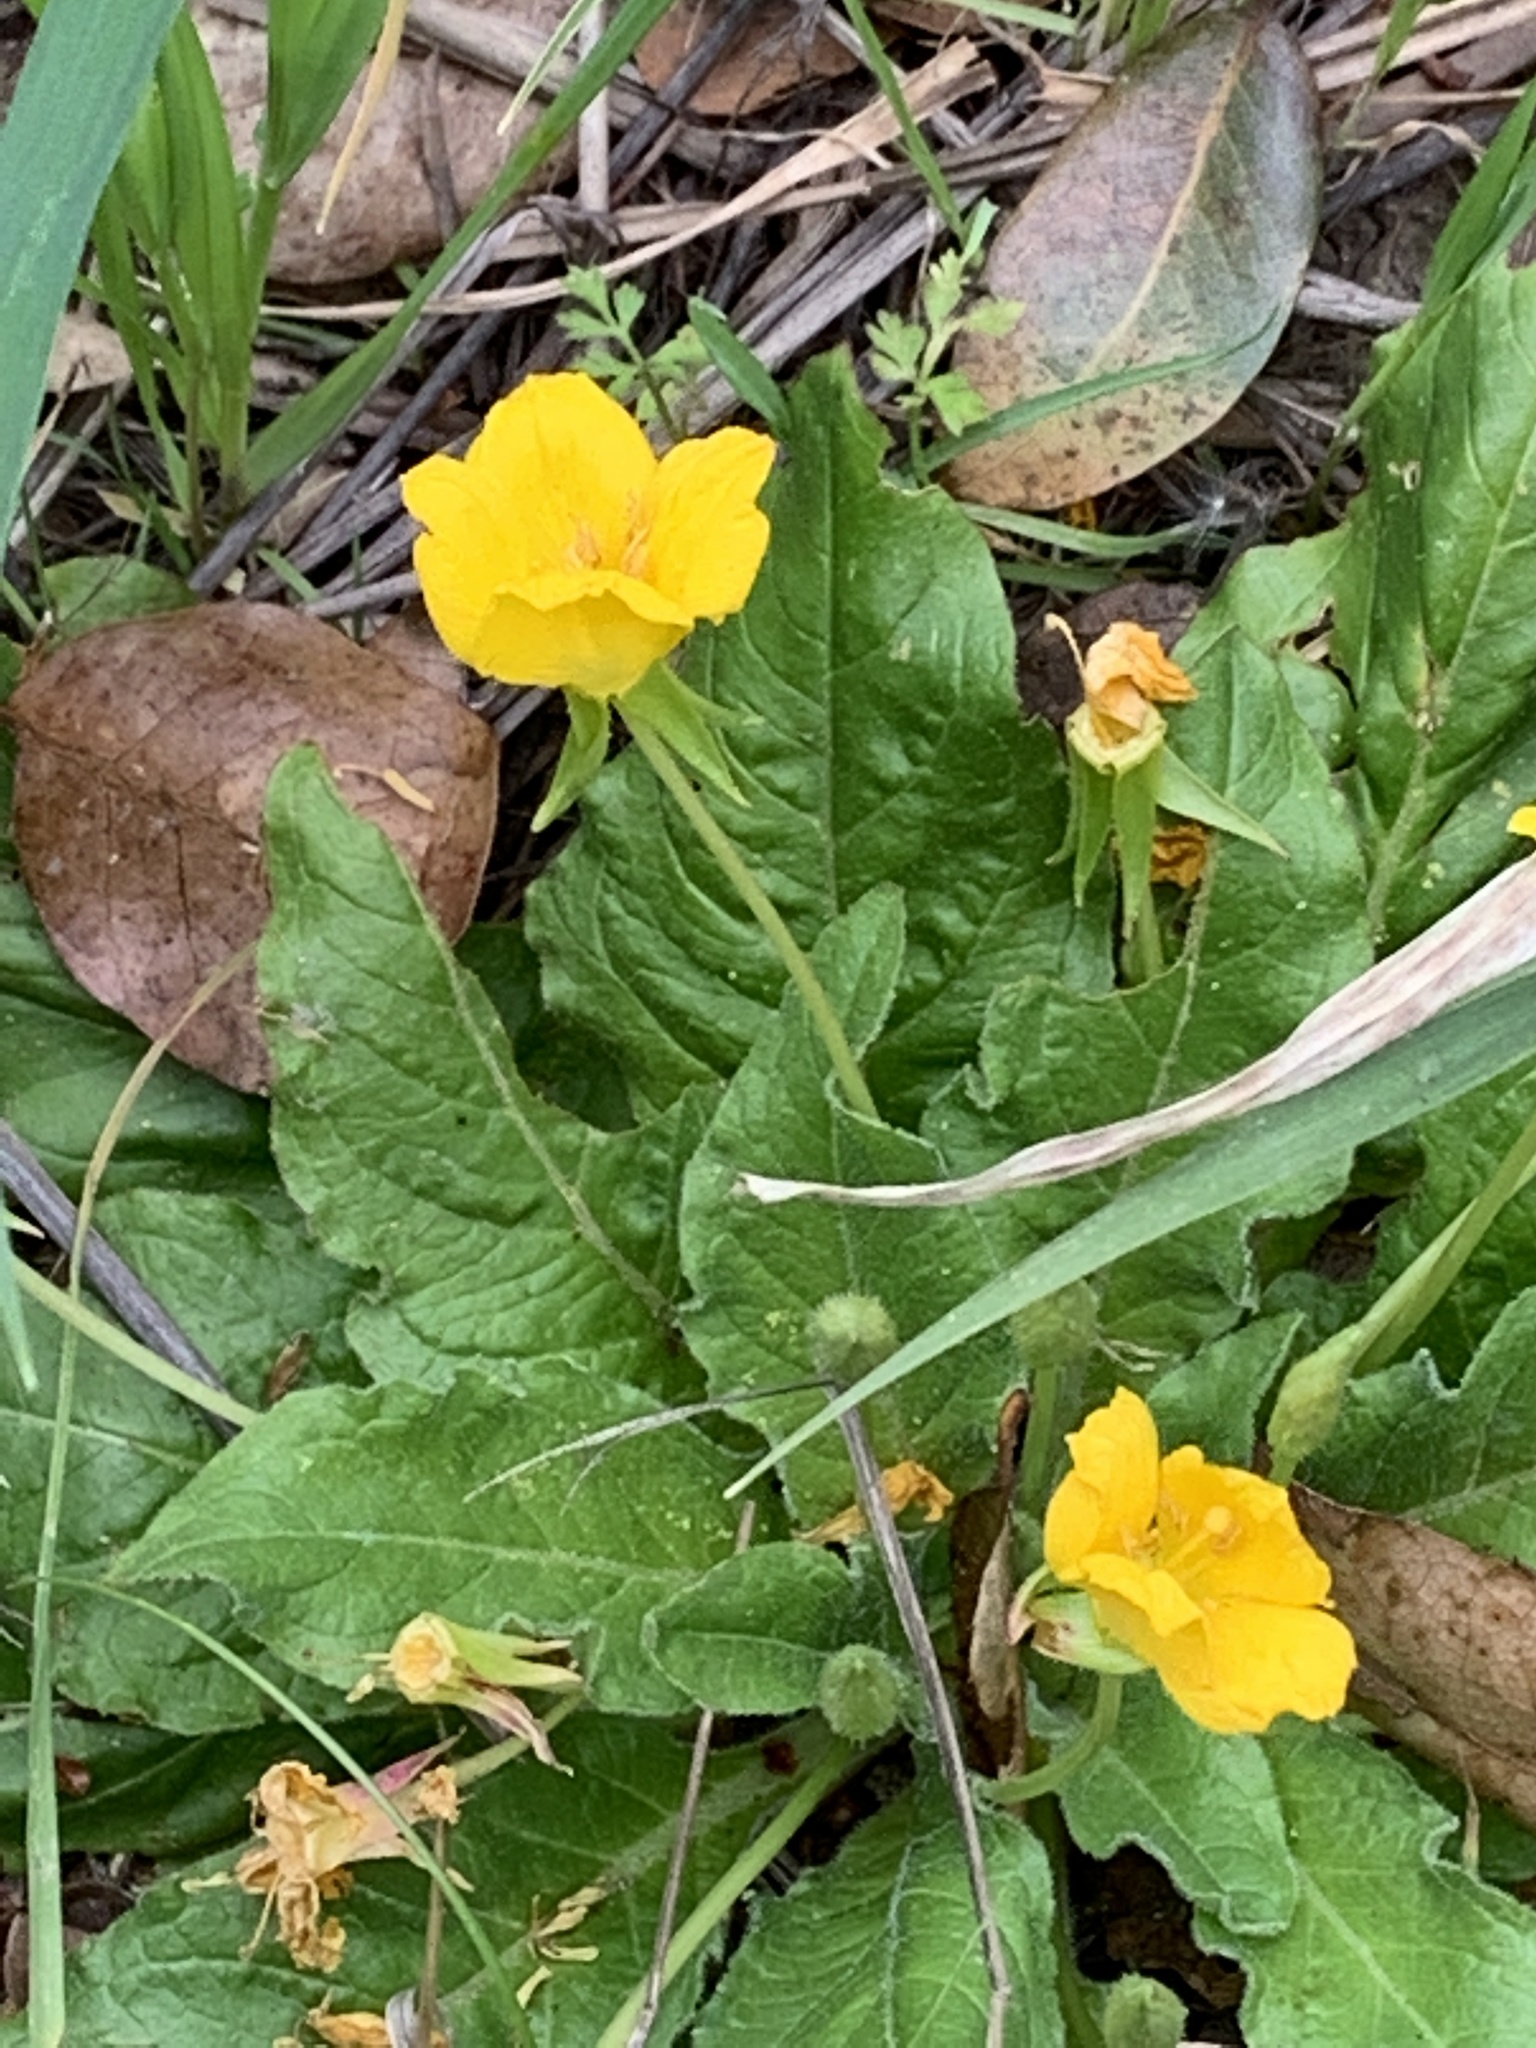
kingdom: Plantae
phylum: Tracheophyta
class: Magnoliopsida
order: Myrtales
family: Onagraceae
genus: Taraxia
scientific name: Taraxia ovata
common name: Goldeneggs
